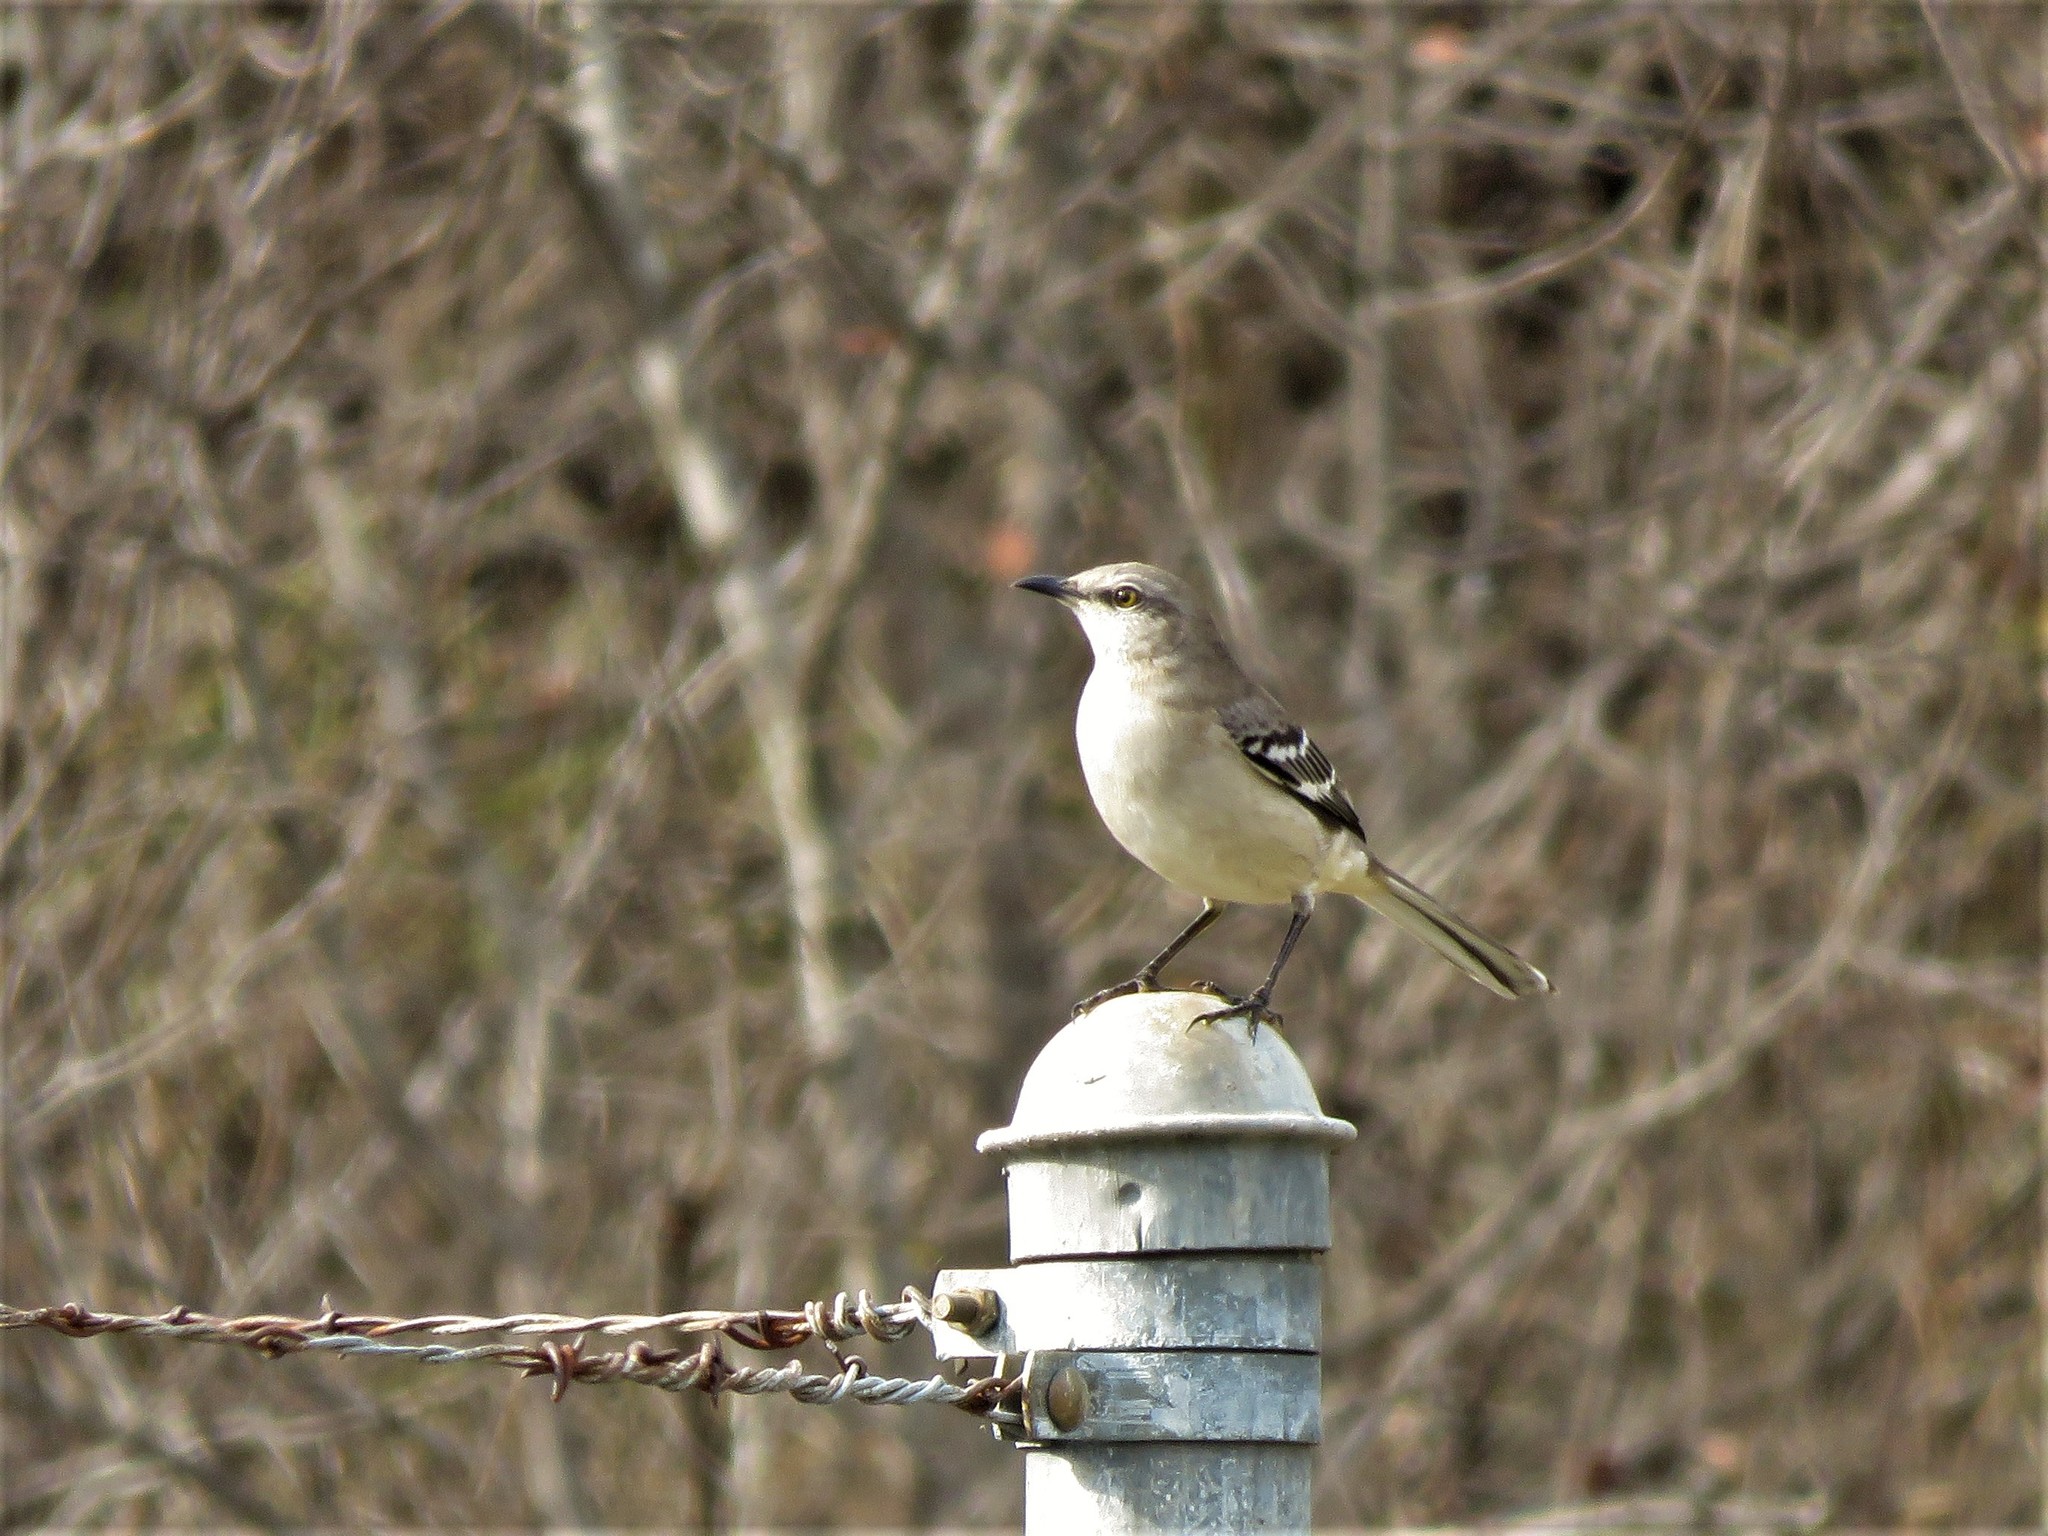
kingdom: Animalia
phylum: Chordata
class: Aves
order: Passeriformes
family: Mimidae
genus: Mimus
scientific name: Mimus polyglottos
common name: Northern mockingbird
